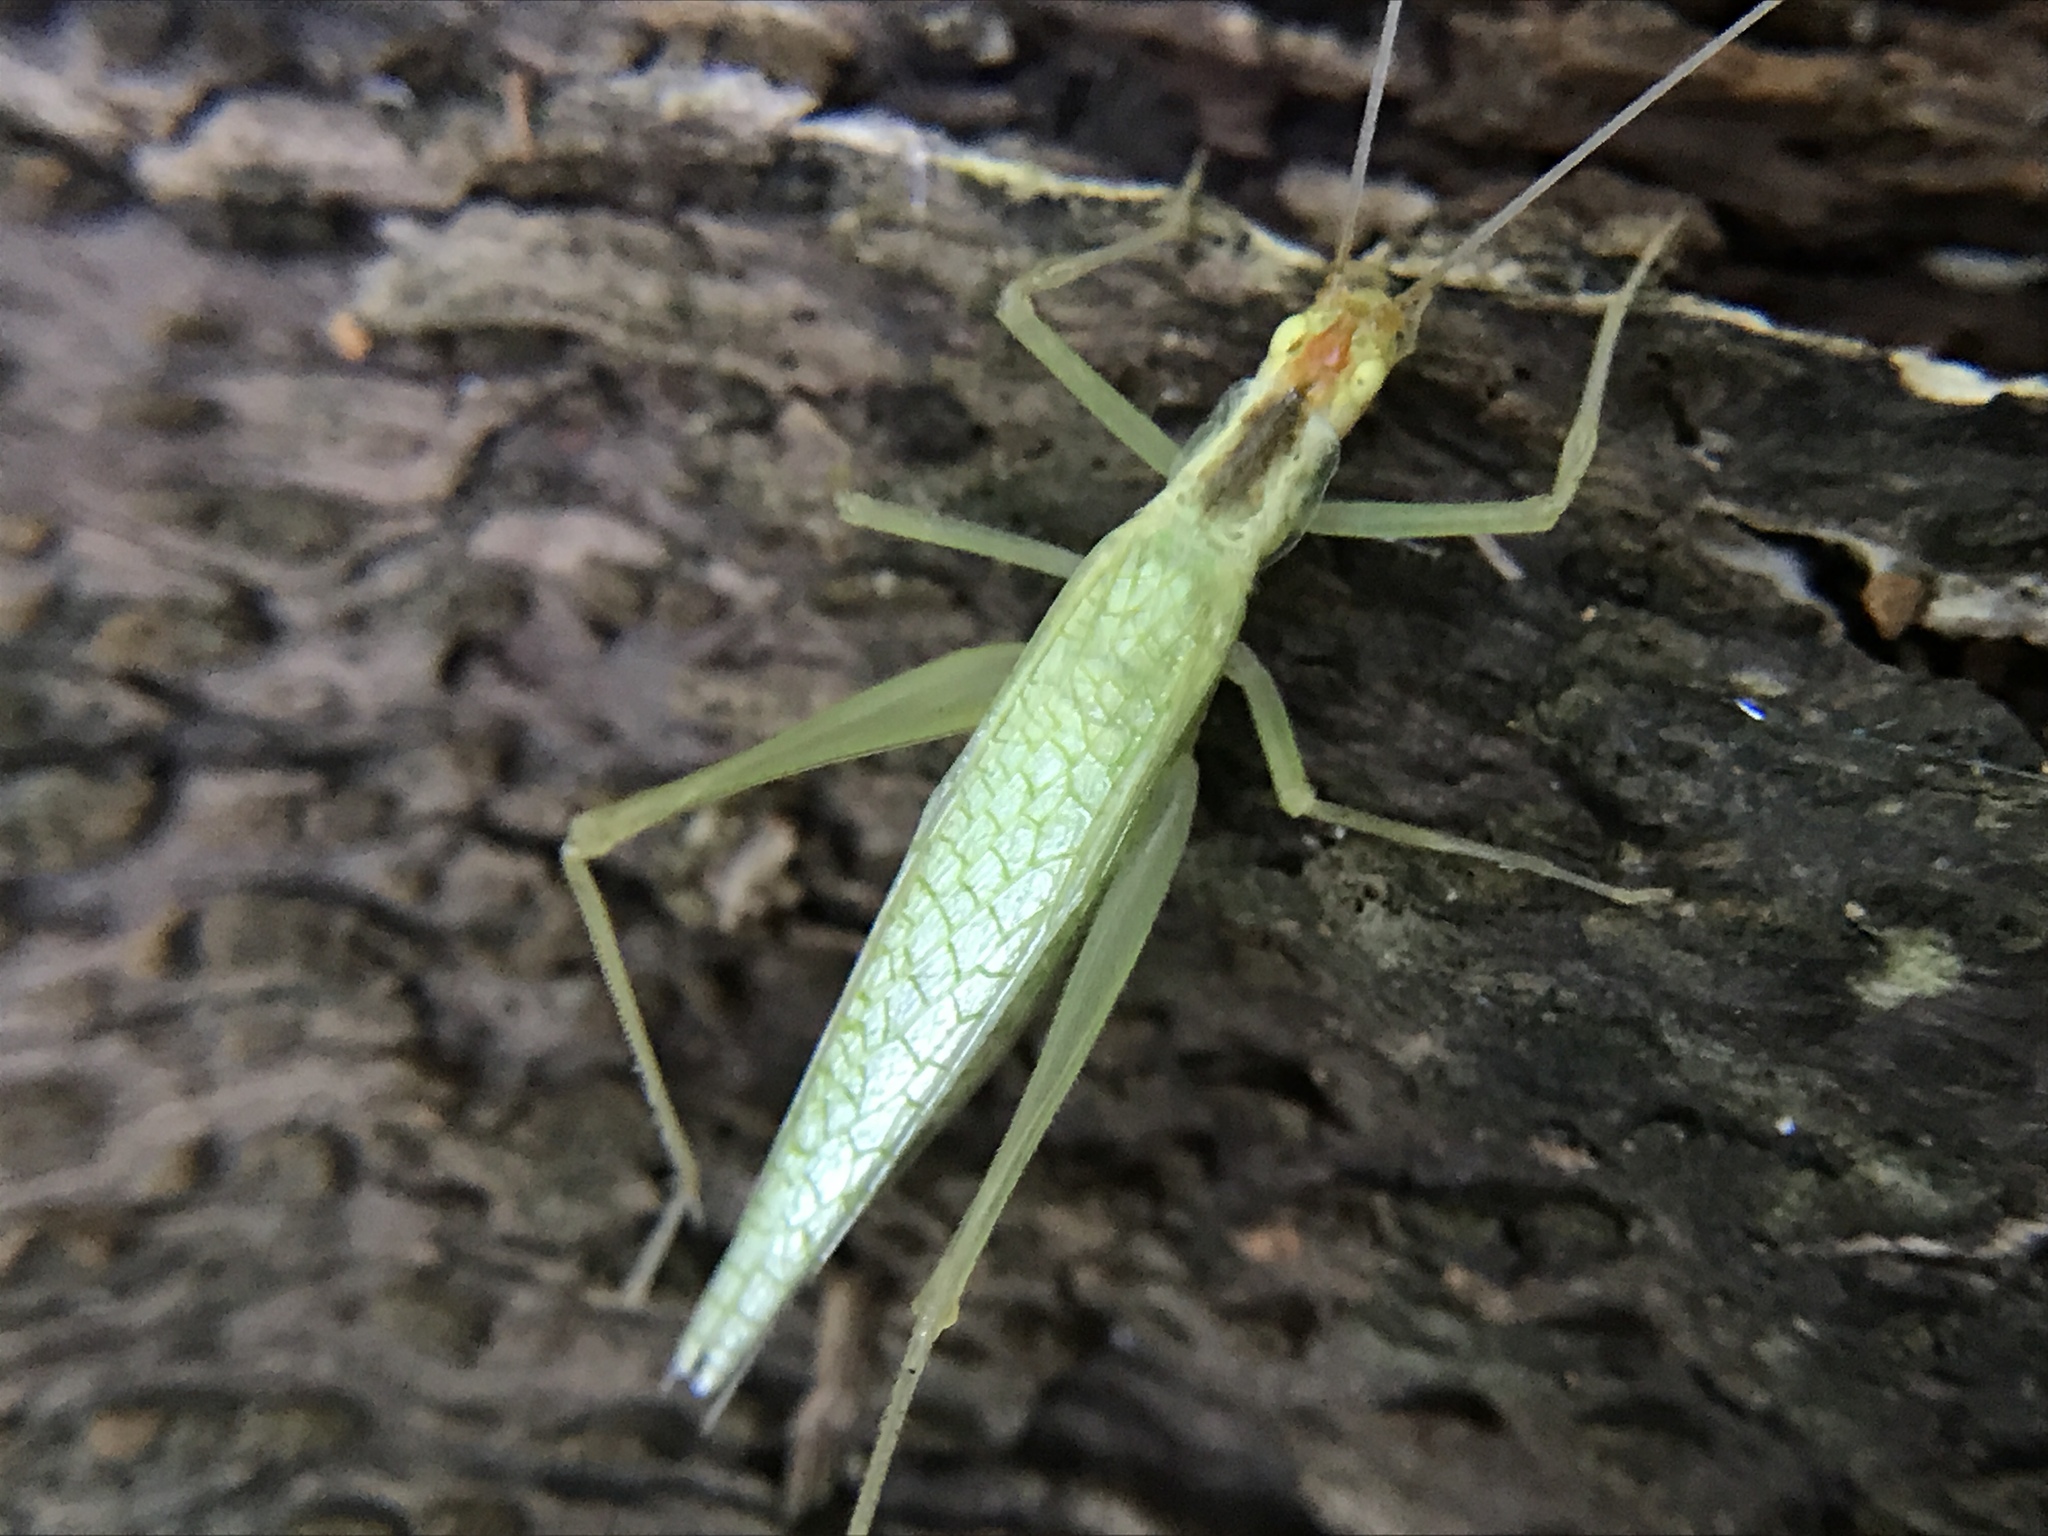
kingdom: Animalia
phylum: Arthropoda
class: Insecta
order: Orthoptera
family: Gryllidae
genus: Oecanthus
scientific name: Oecanthus niveus
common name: Narrow-winged tree cricket
